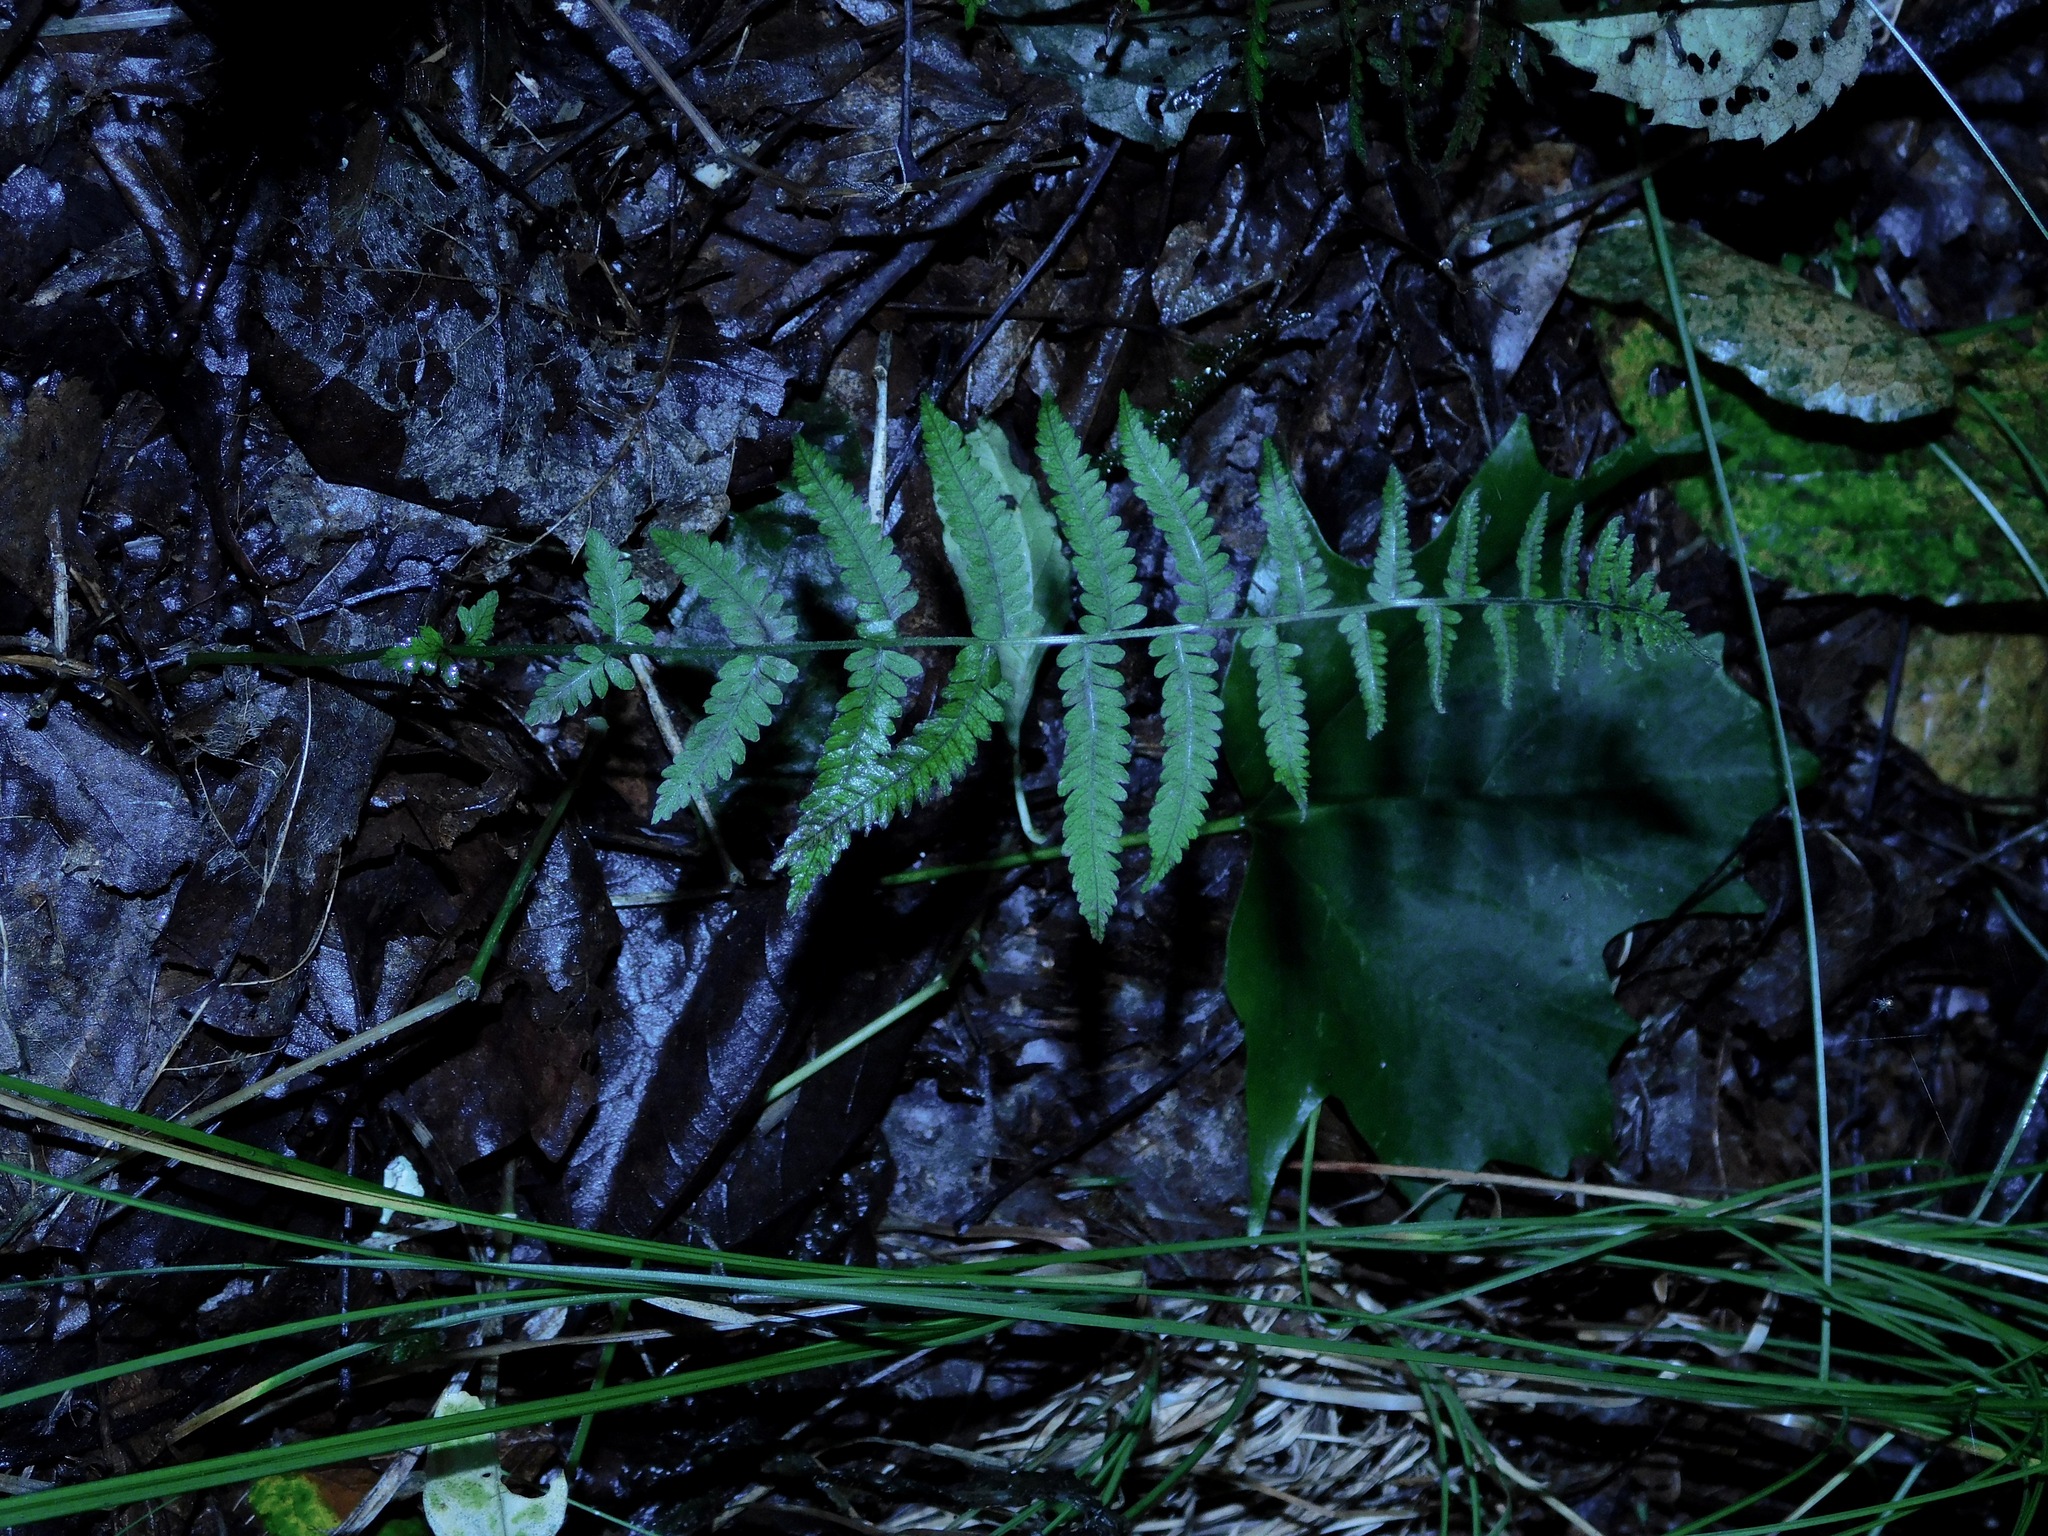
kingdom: Plantae
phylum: Tracheophyta
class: Polypodiopsida
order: Polypodiales
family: Thelypteridaceae
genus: Amauropelta
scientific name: Amauropelta noveboracensis
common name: New york fern
